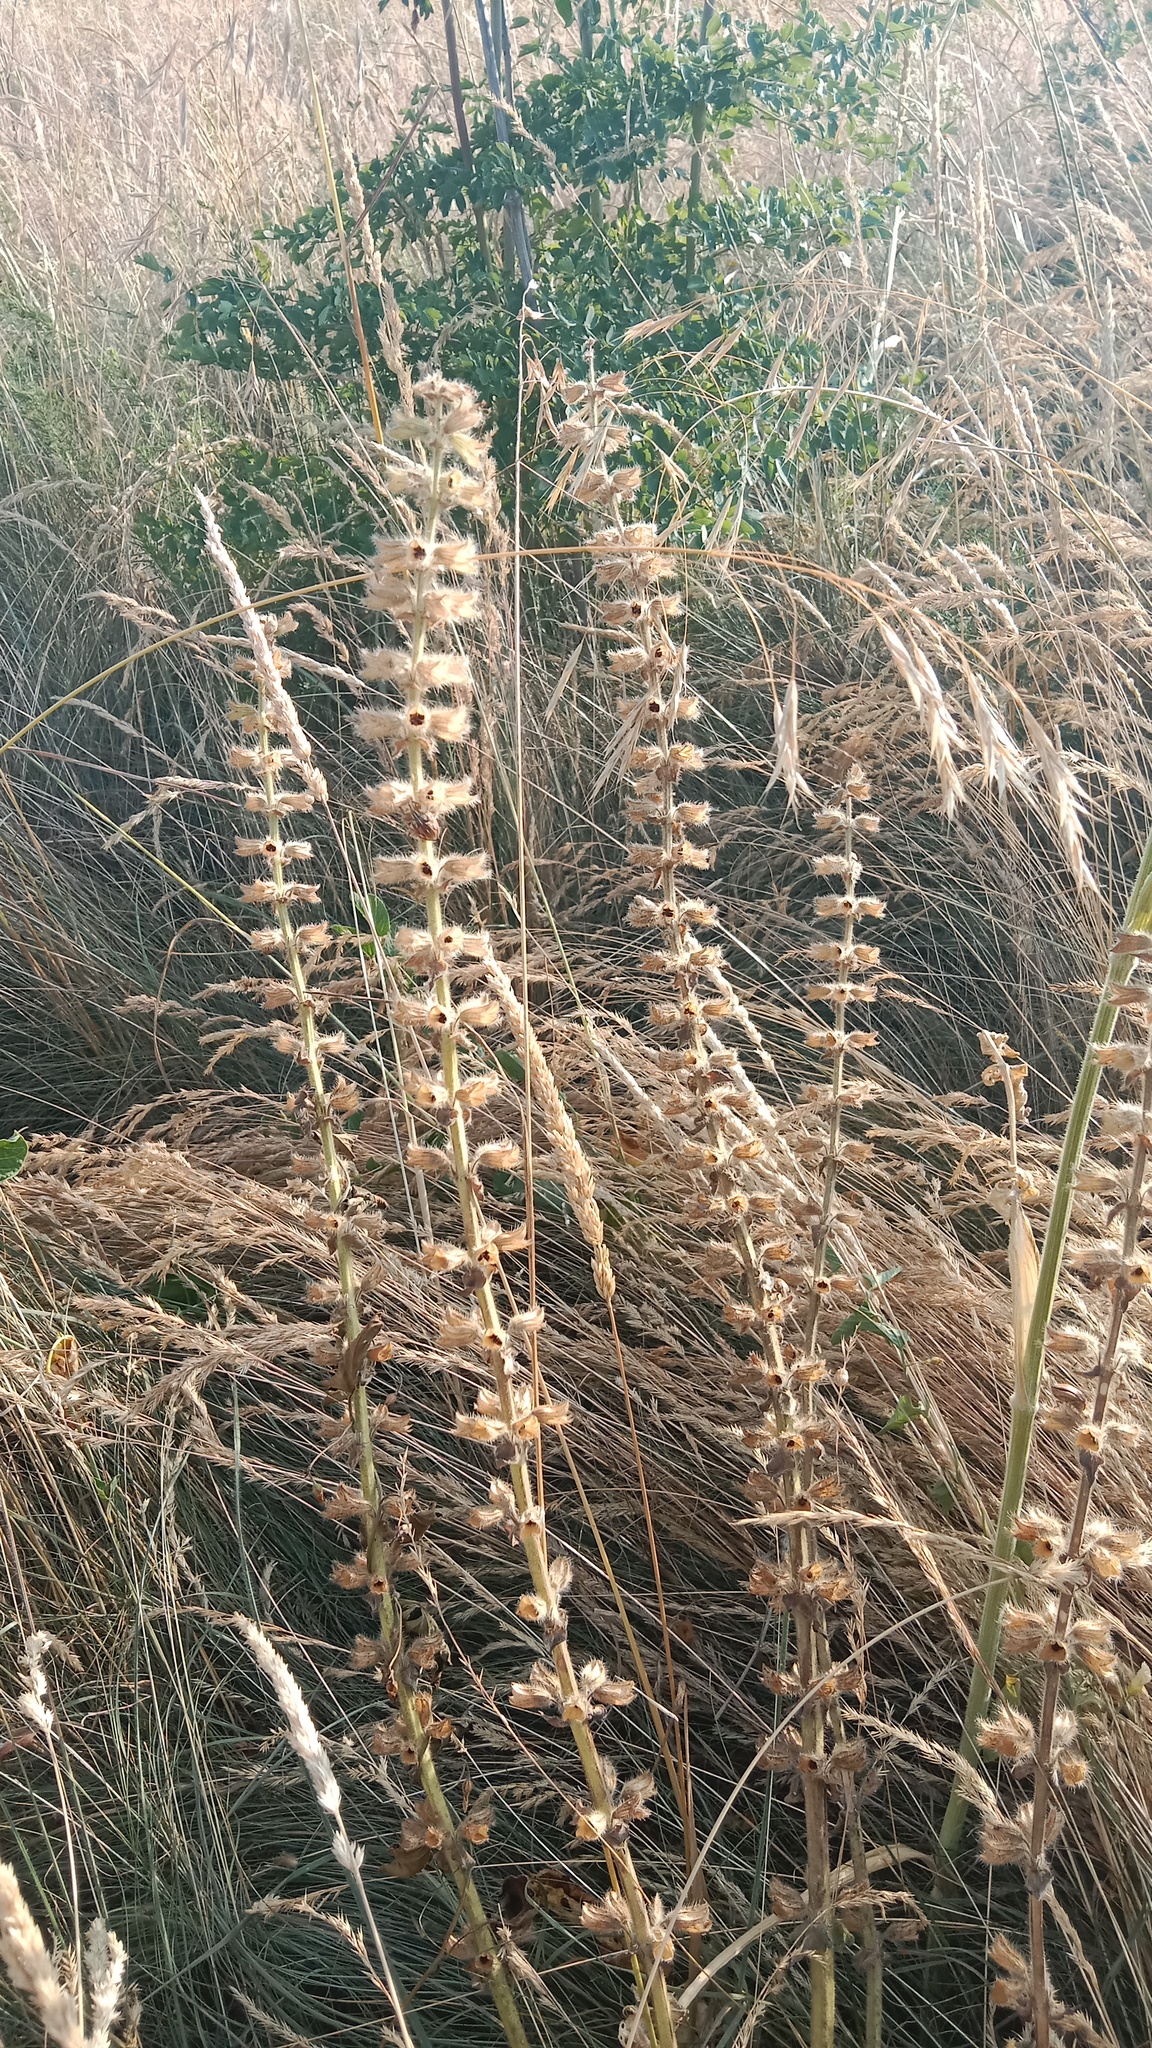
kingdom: Plantae
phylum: Tracheophyta
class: Magnoliopsida
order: Lamiales
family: Lamiaceae
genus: Salvia
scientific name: Salvia austriaca
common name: Austrian sage
